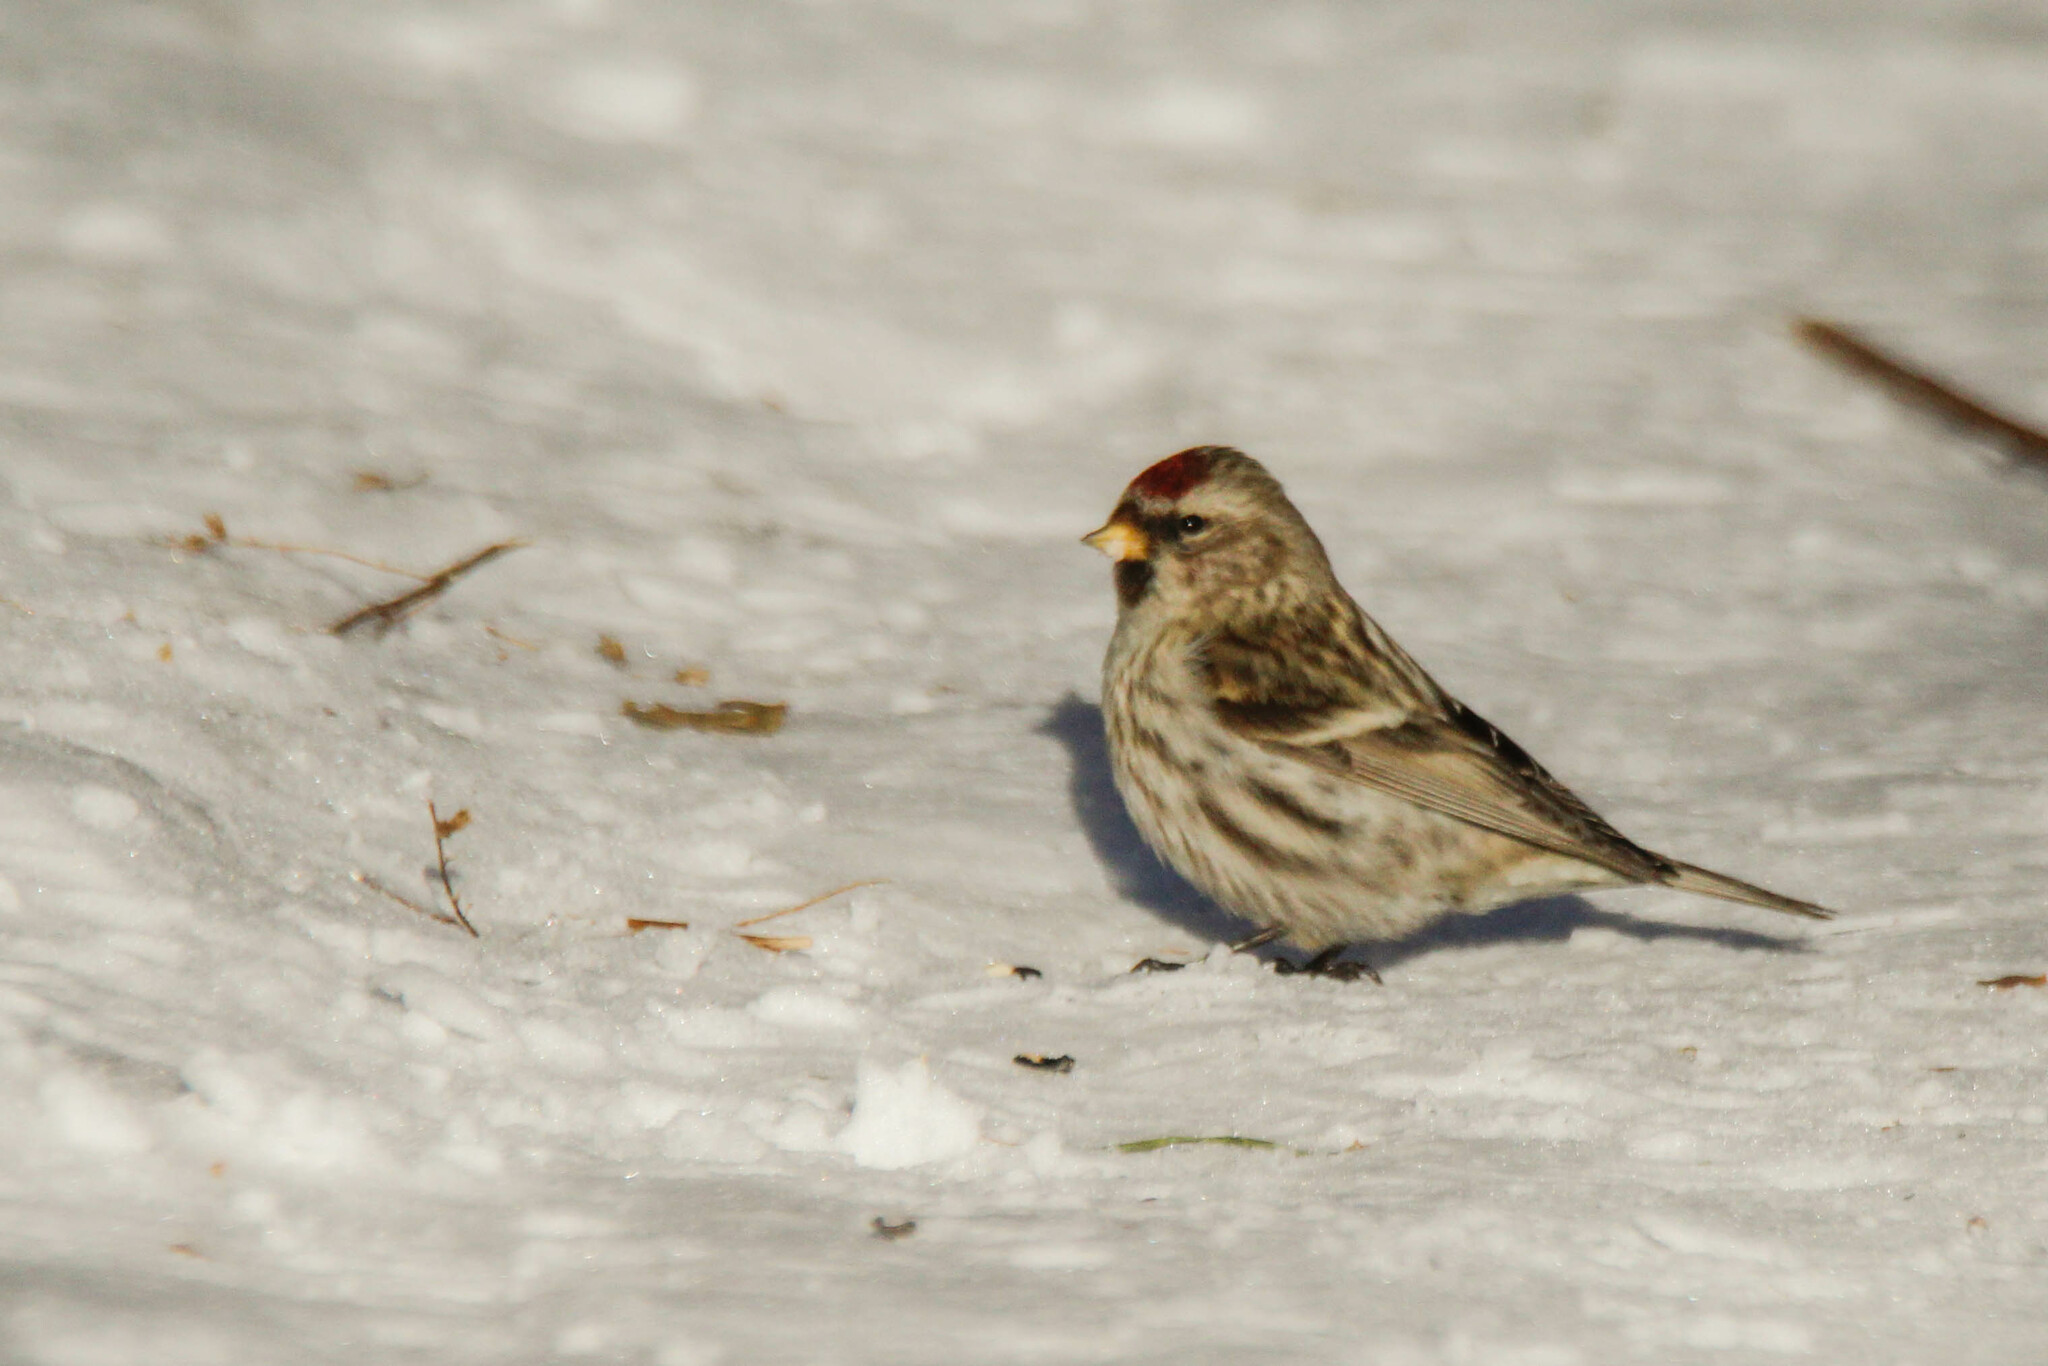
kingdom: Animalia
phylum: Chordata
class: Aves
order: Passeriformes
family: Fringillidae
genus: Acanthis
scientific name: Acanthis flammea
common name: Common redpoll
